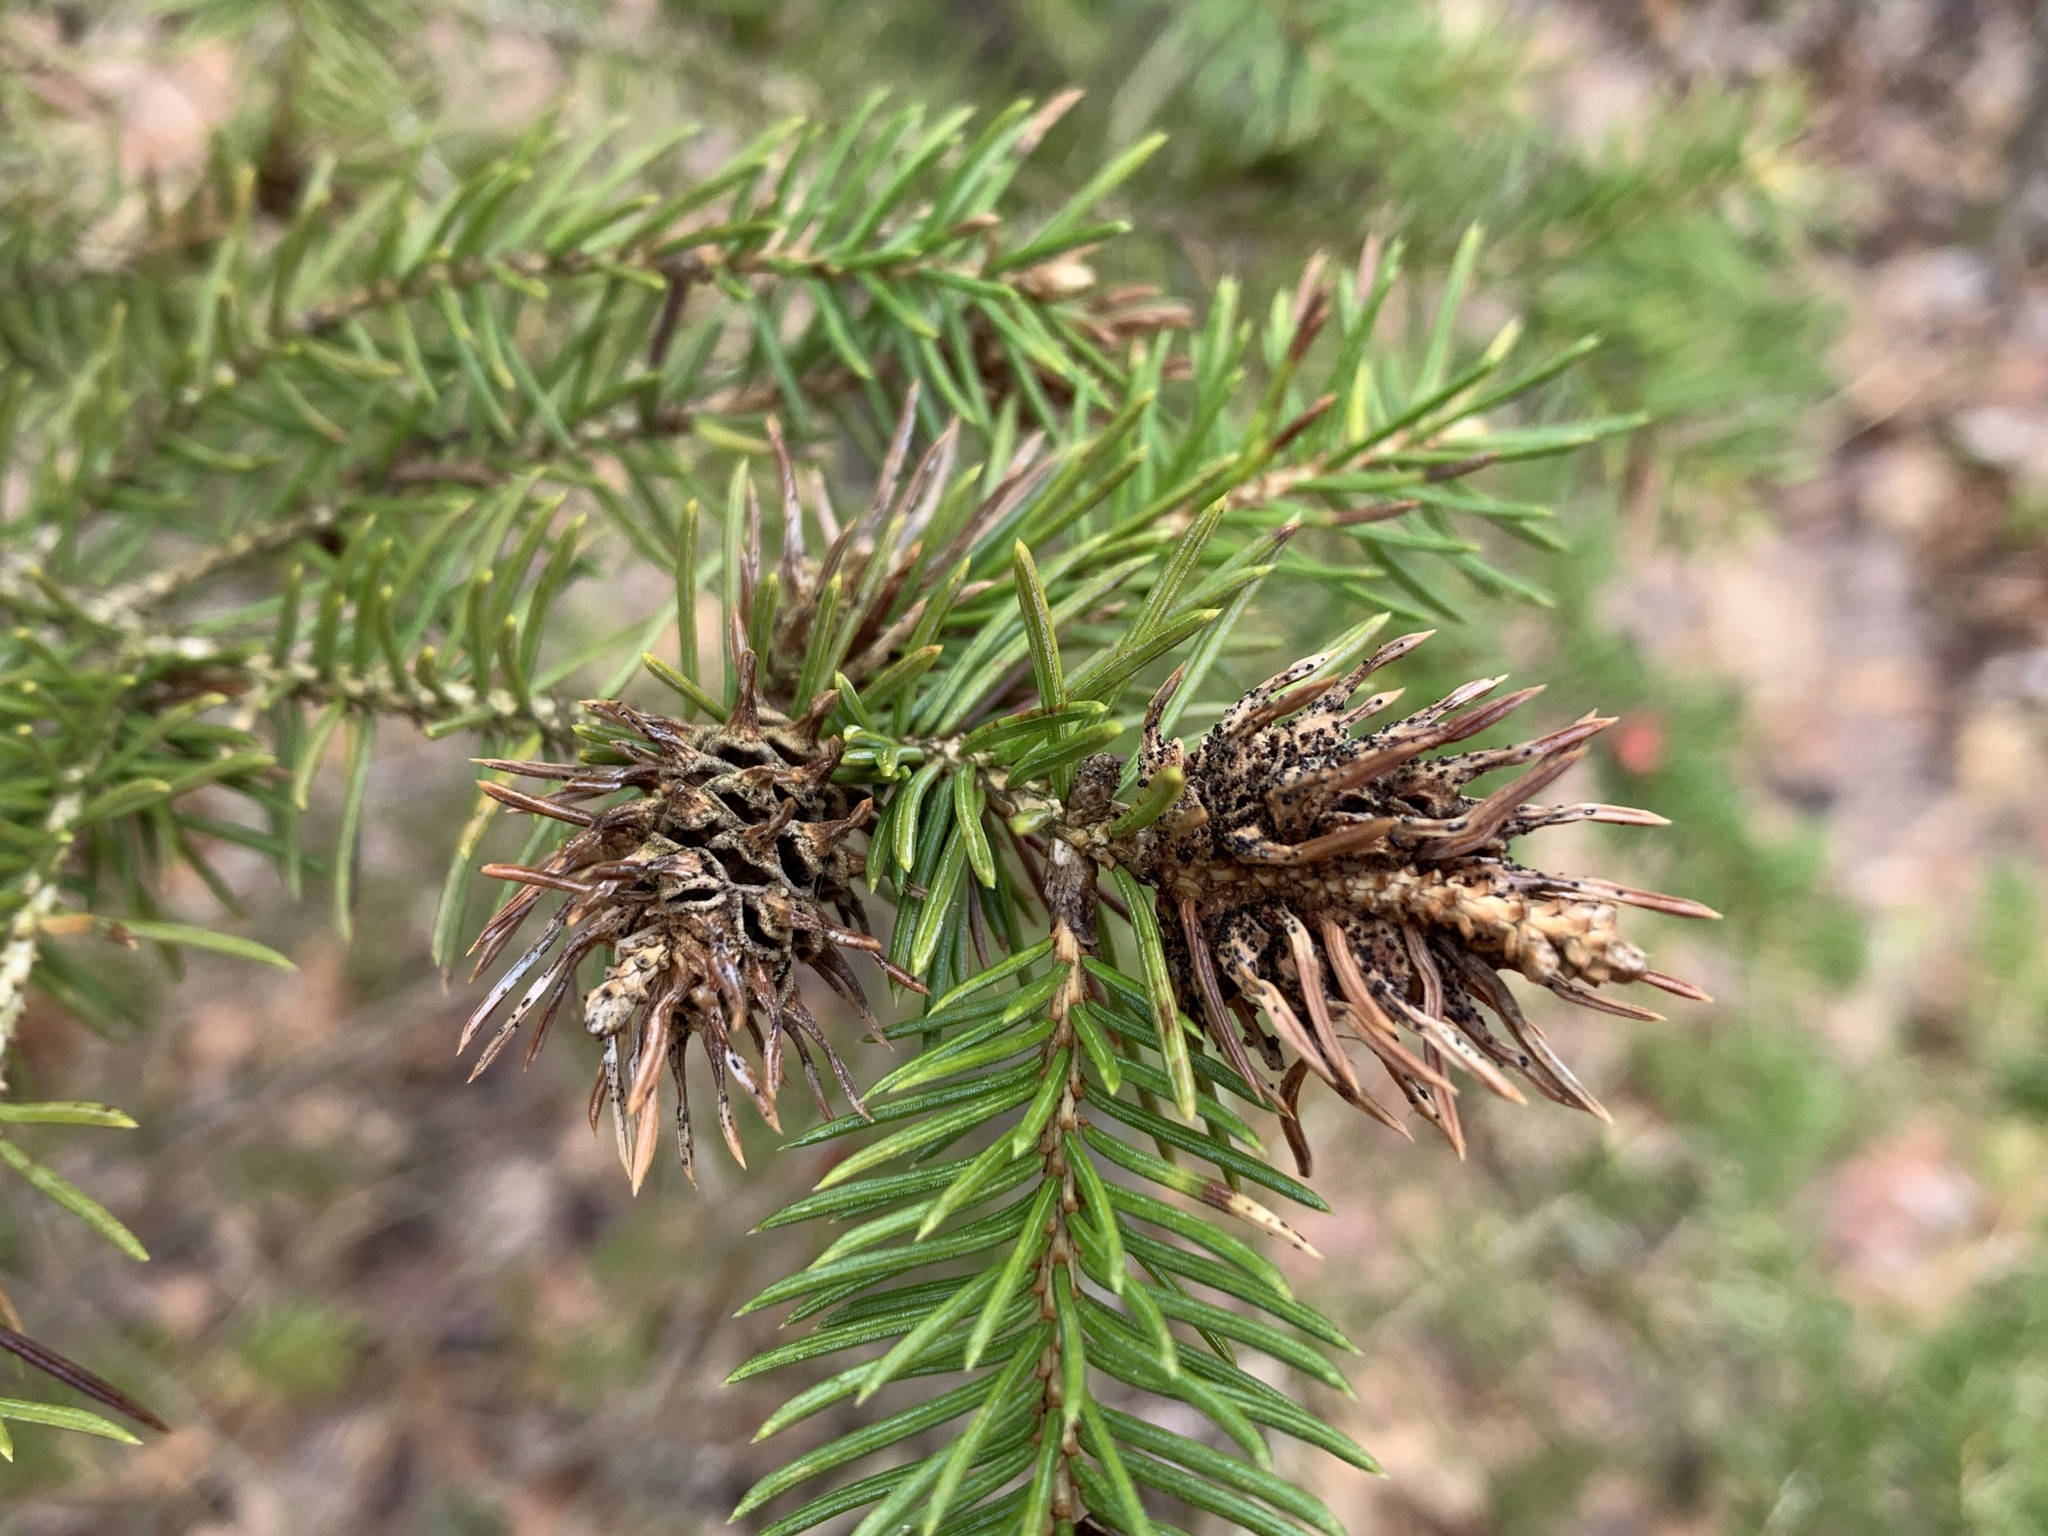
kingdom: Animalia
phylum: Arthropoda
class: Insecta
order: Hemiptera
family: Adelgidae
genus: Adelges
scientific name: Adelges abietis
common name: Eastern spruce gall adelgid
